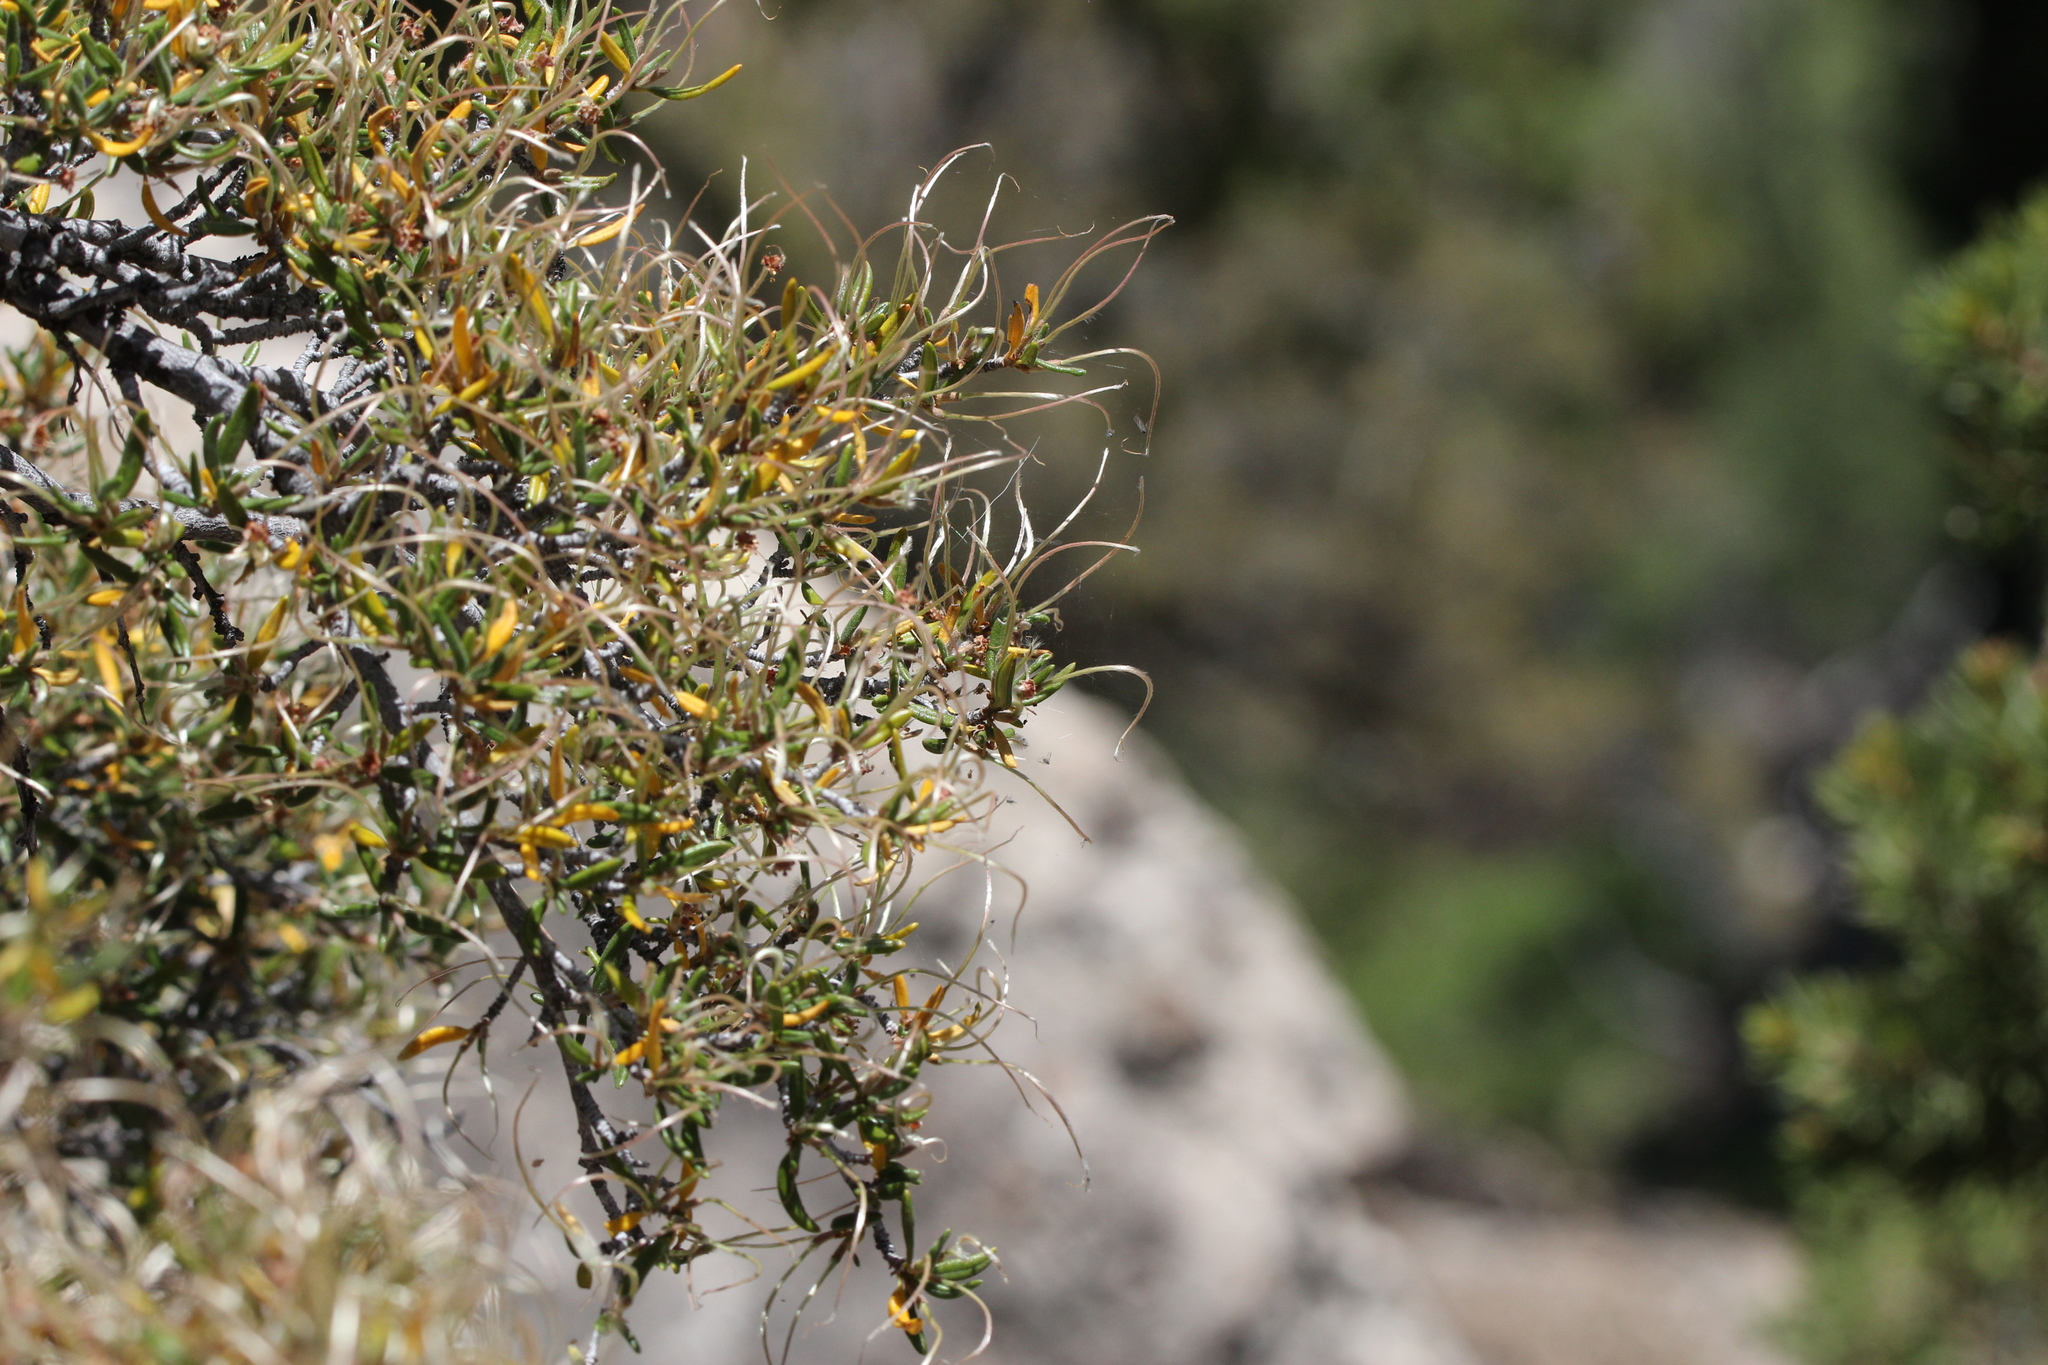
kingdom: Plantae
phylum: Tracheophyta
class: Magnoliopsida
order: Rosales
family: Rosaceae
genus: Cercocarpus
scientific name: Cercocarpus ledifolius
